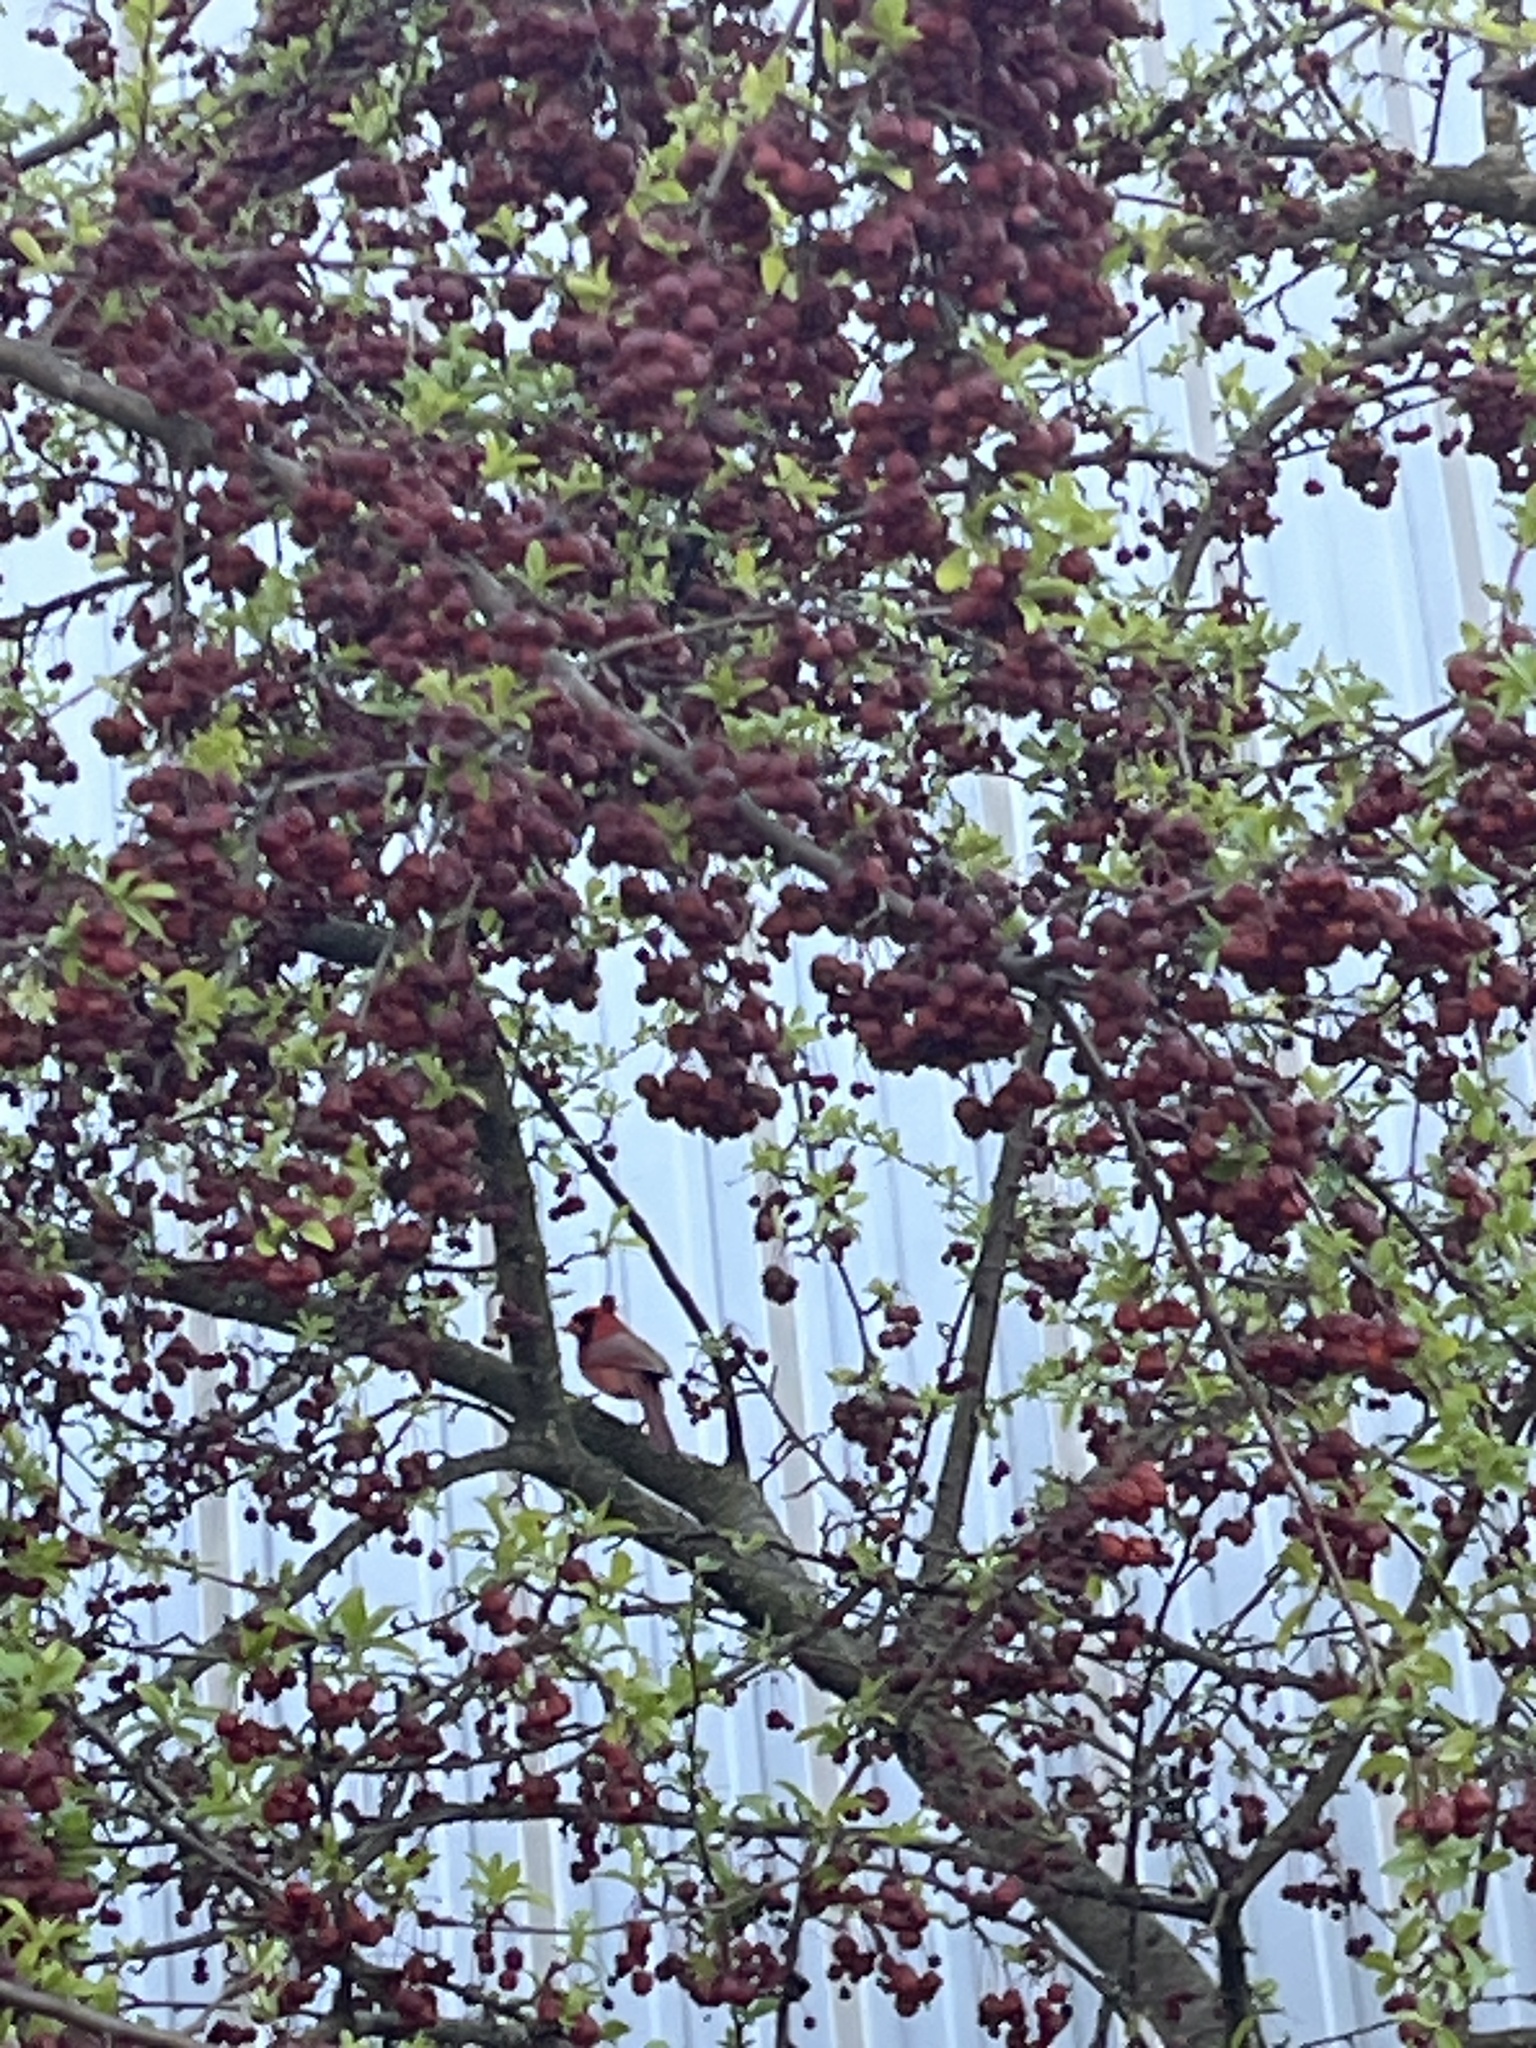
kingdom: Animalia
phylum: Chordata
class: Aves
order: Passeriformes
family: Cardinalidae
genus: Cardinalis
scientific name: Cardinalis cardinalis
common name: Northern cardinal
